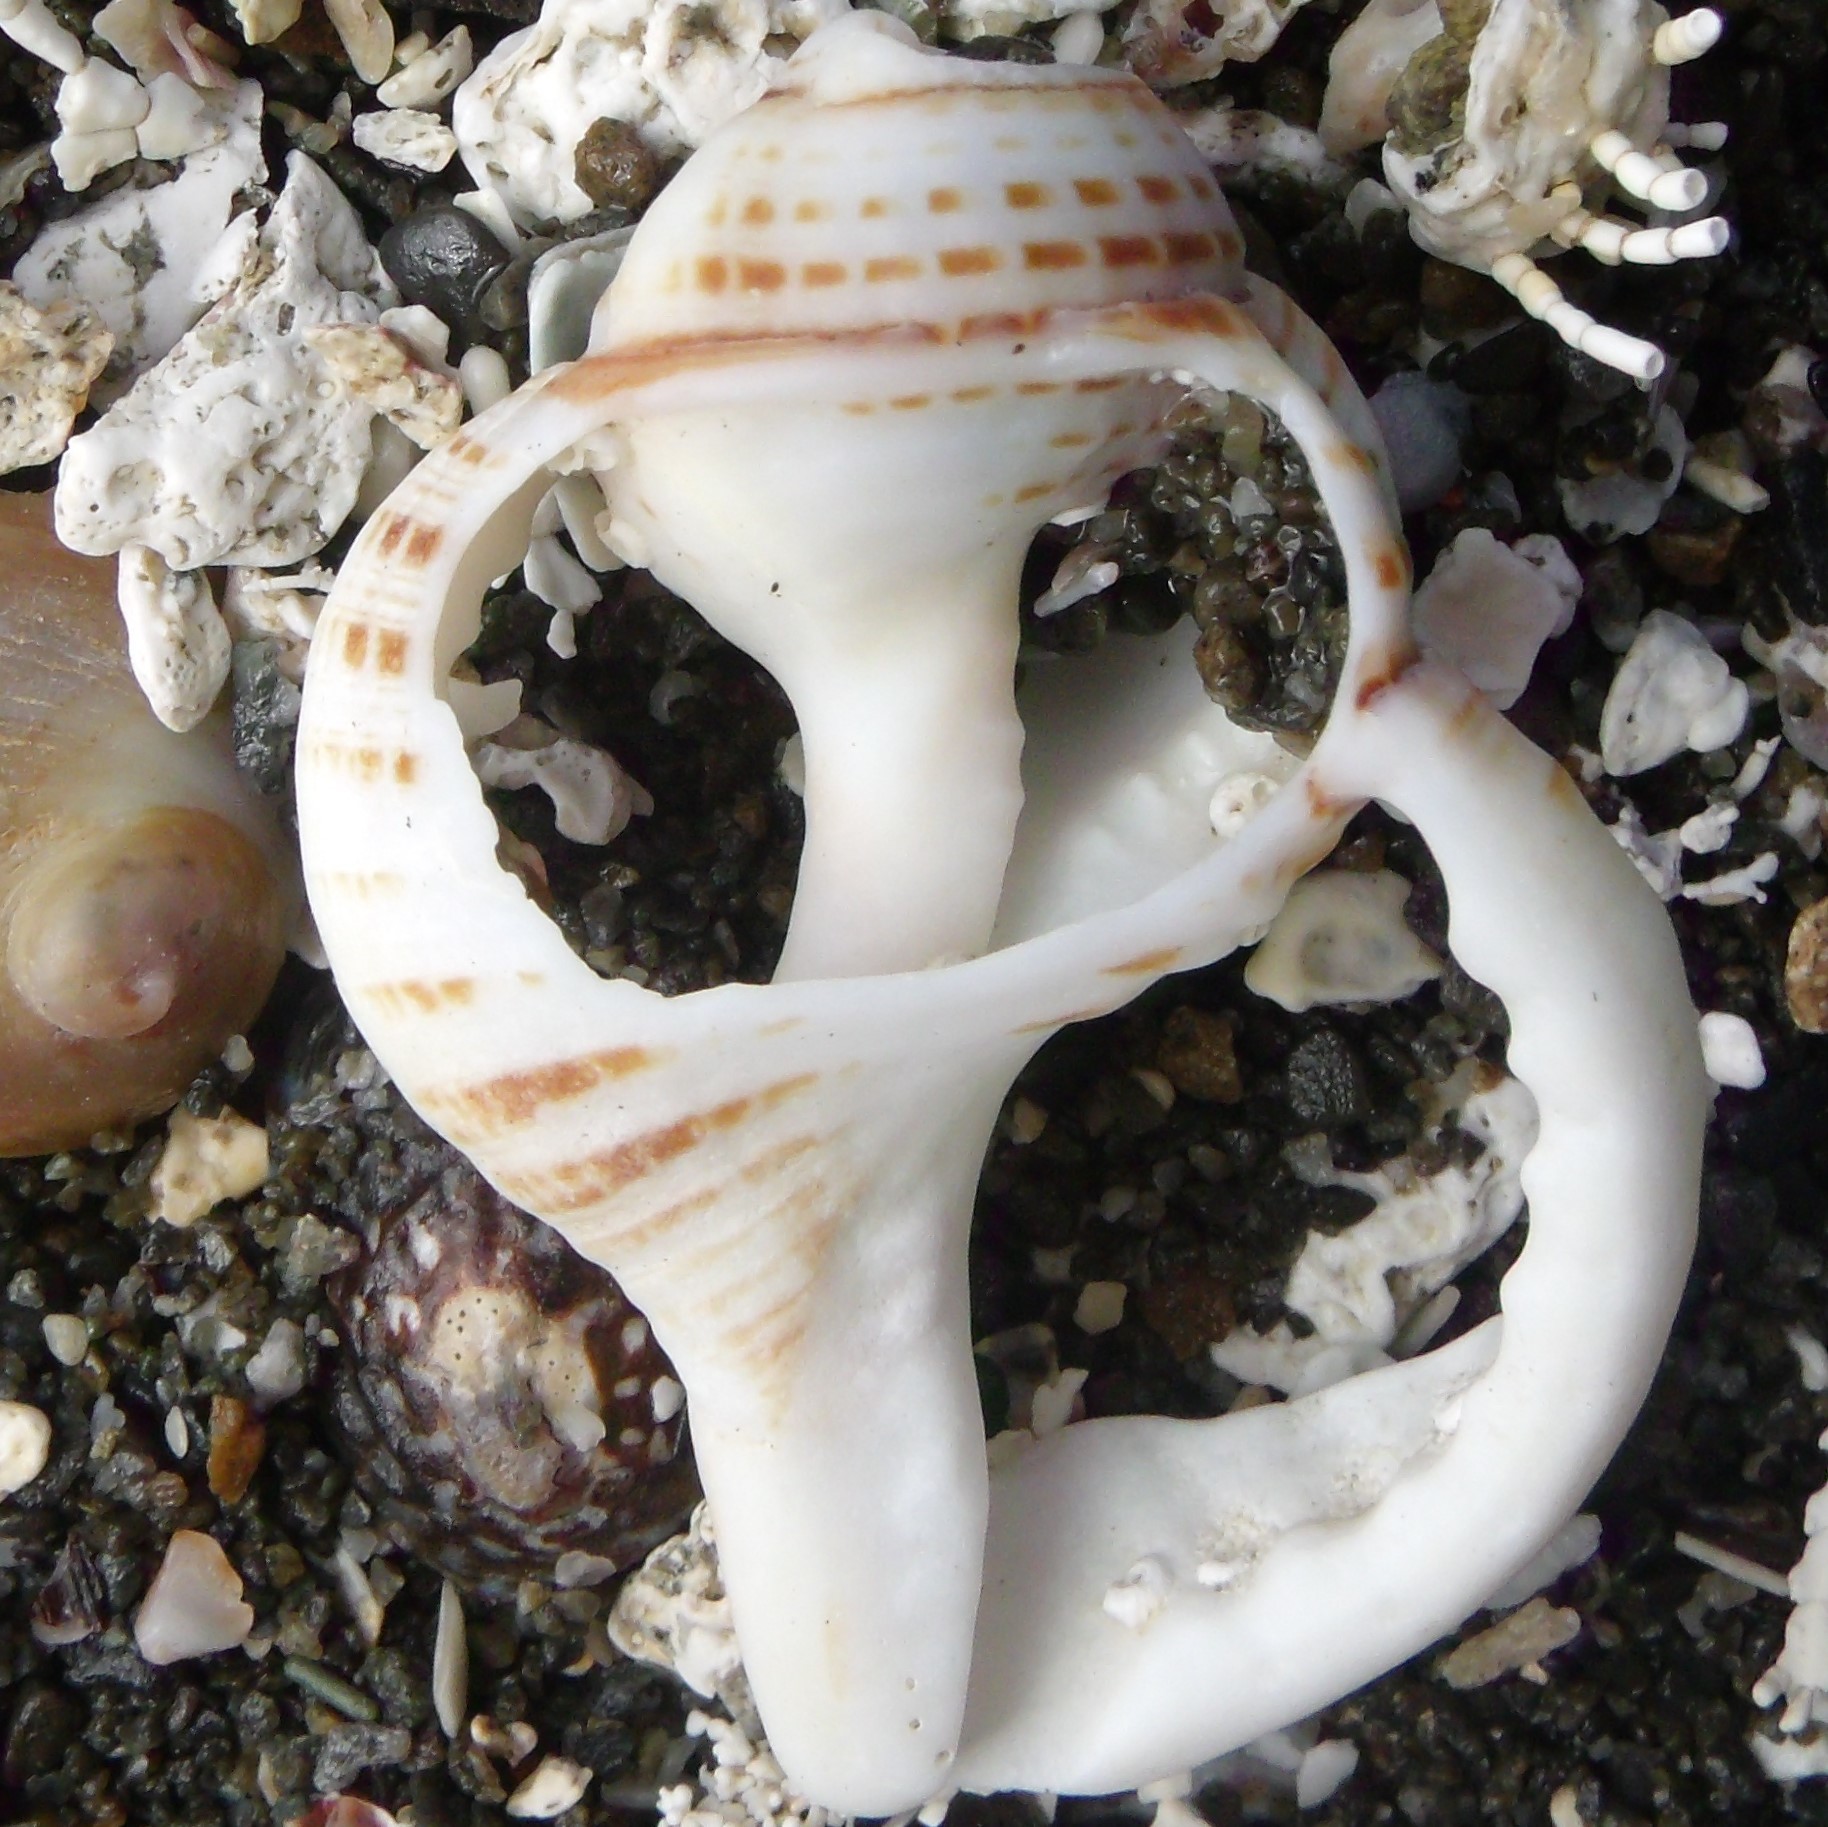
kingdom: Animalia
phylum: Mollusca
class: Gastropoda
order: Littorinimorpha
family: Cymatiidae
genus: Argobuccinum
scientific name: Argobuccinum pustulosum
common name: Pustular triton
